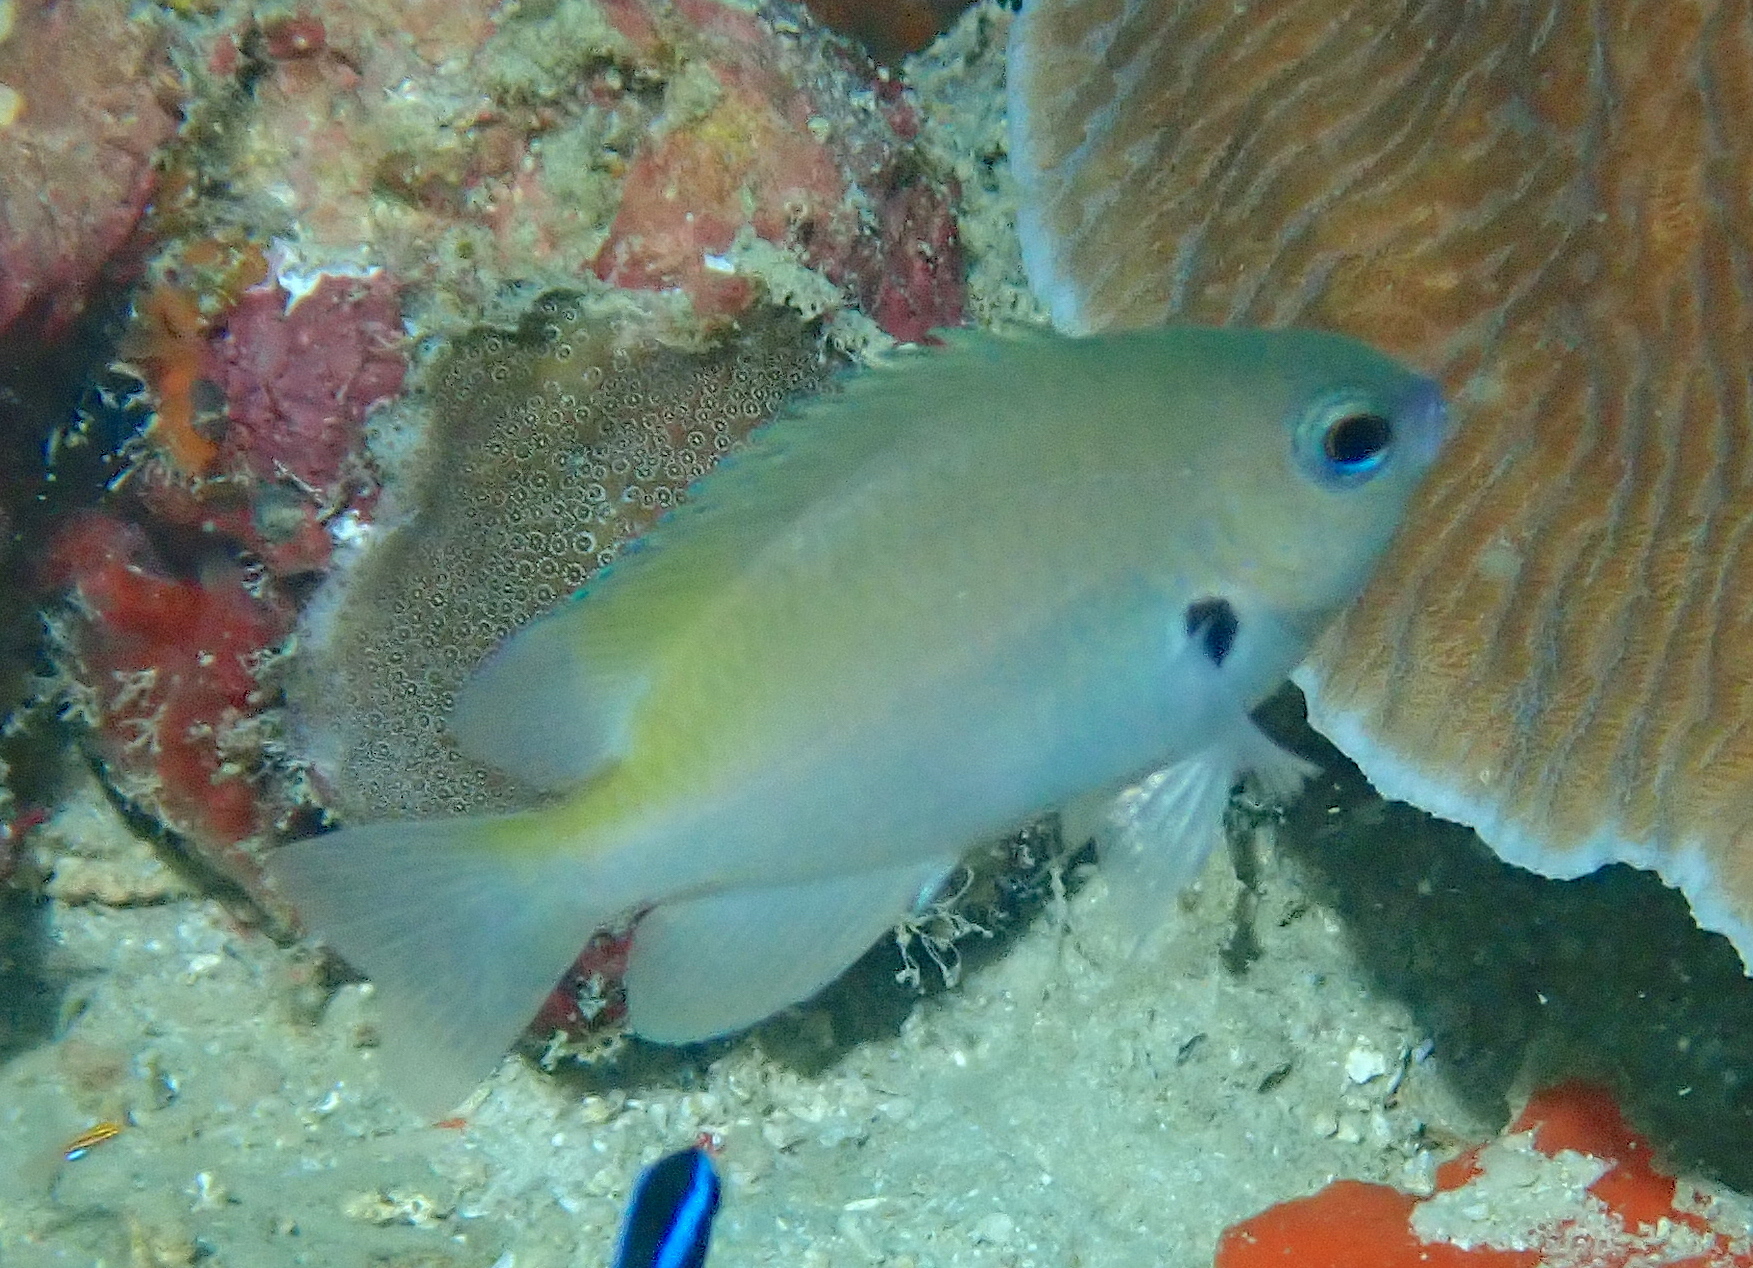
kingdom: Animalia
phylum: Chordata
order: Perciformes
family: Pomacentridae
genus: Pomacentrus
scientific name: Pomacentrus alexanderae
